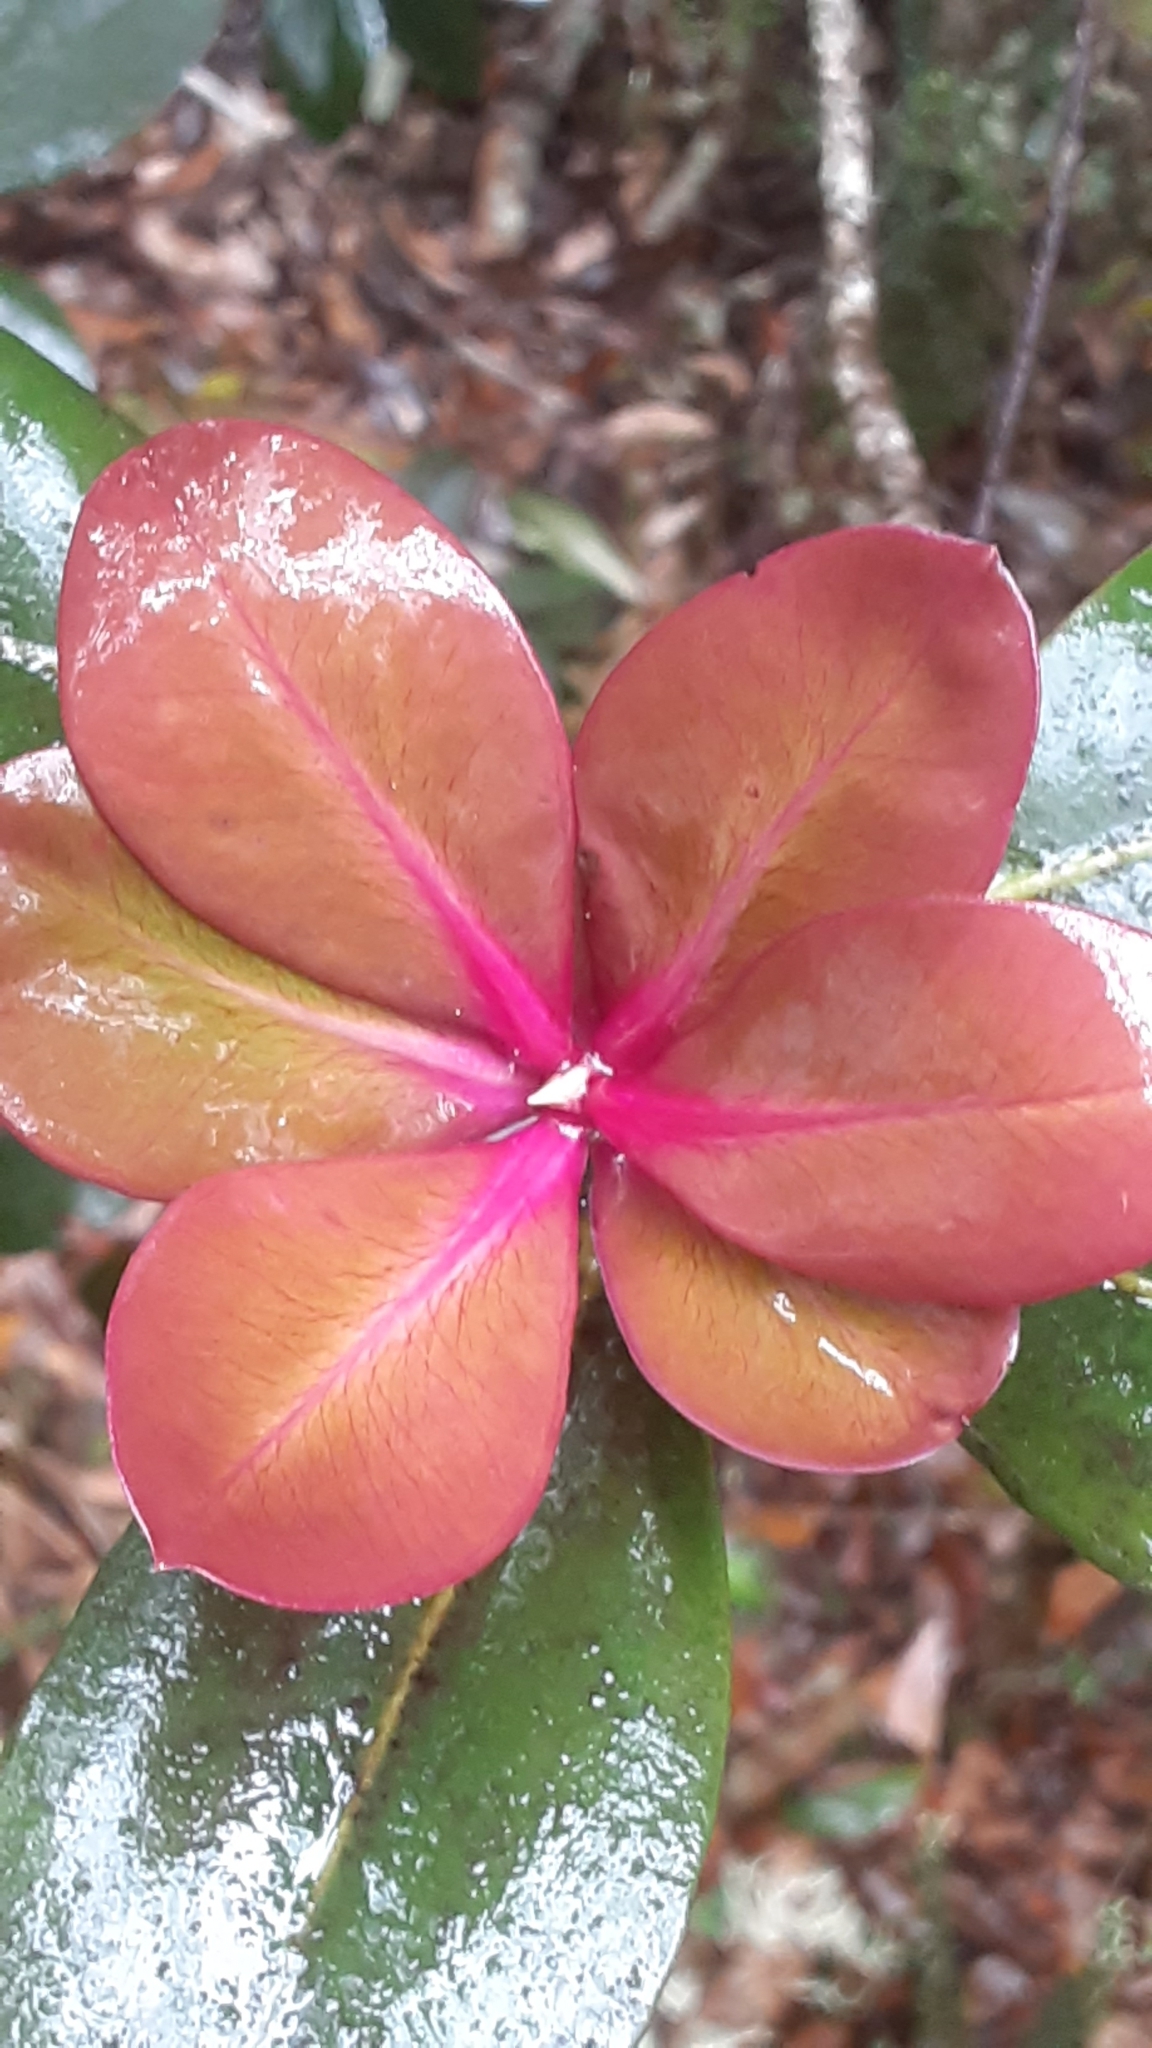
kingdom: Plantae
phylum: Tracheophyta
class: Magnoliopsida
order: Ericales
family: Primulaceae
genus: Myrsine
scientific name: Myrsine lessertiana
